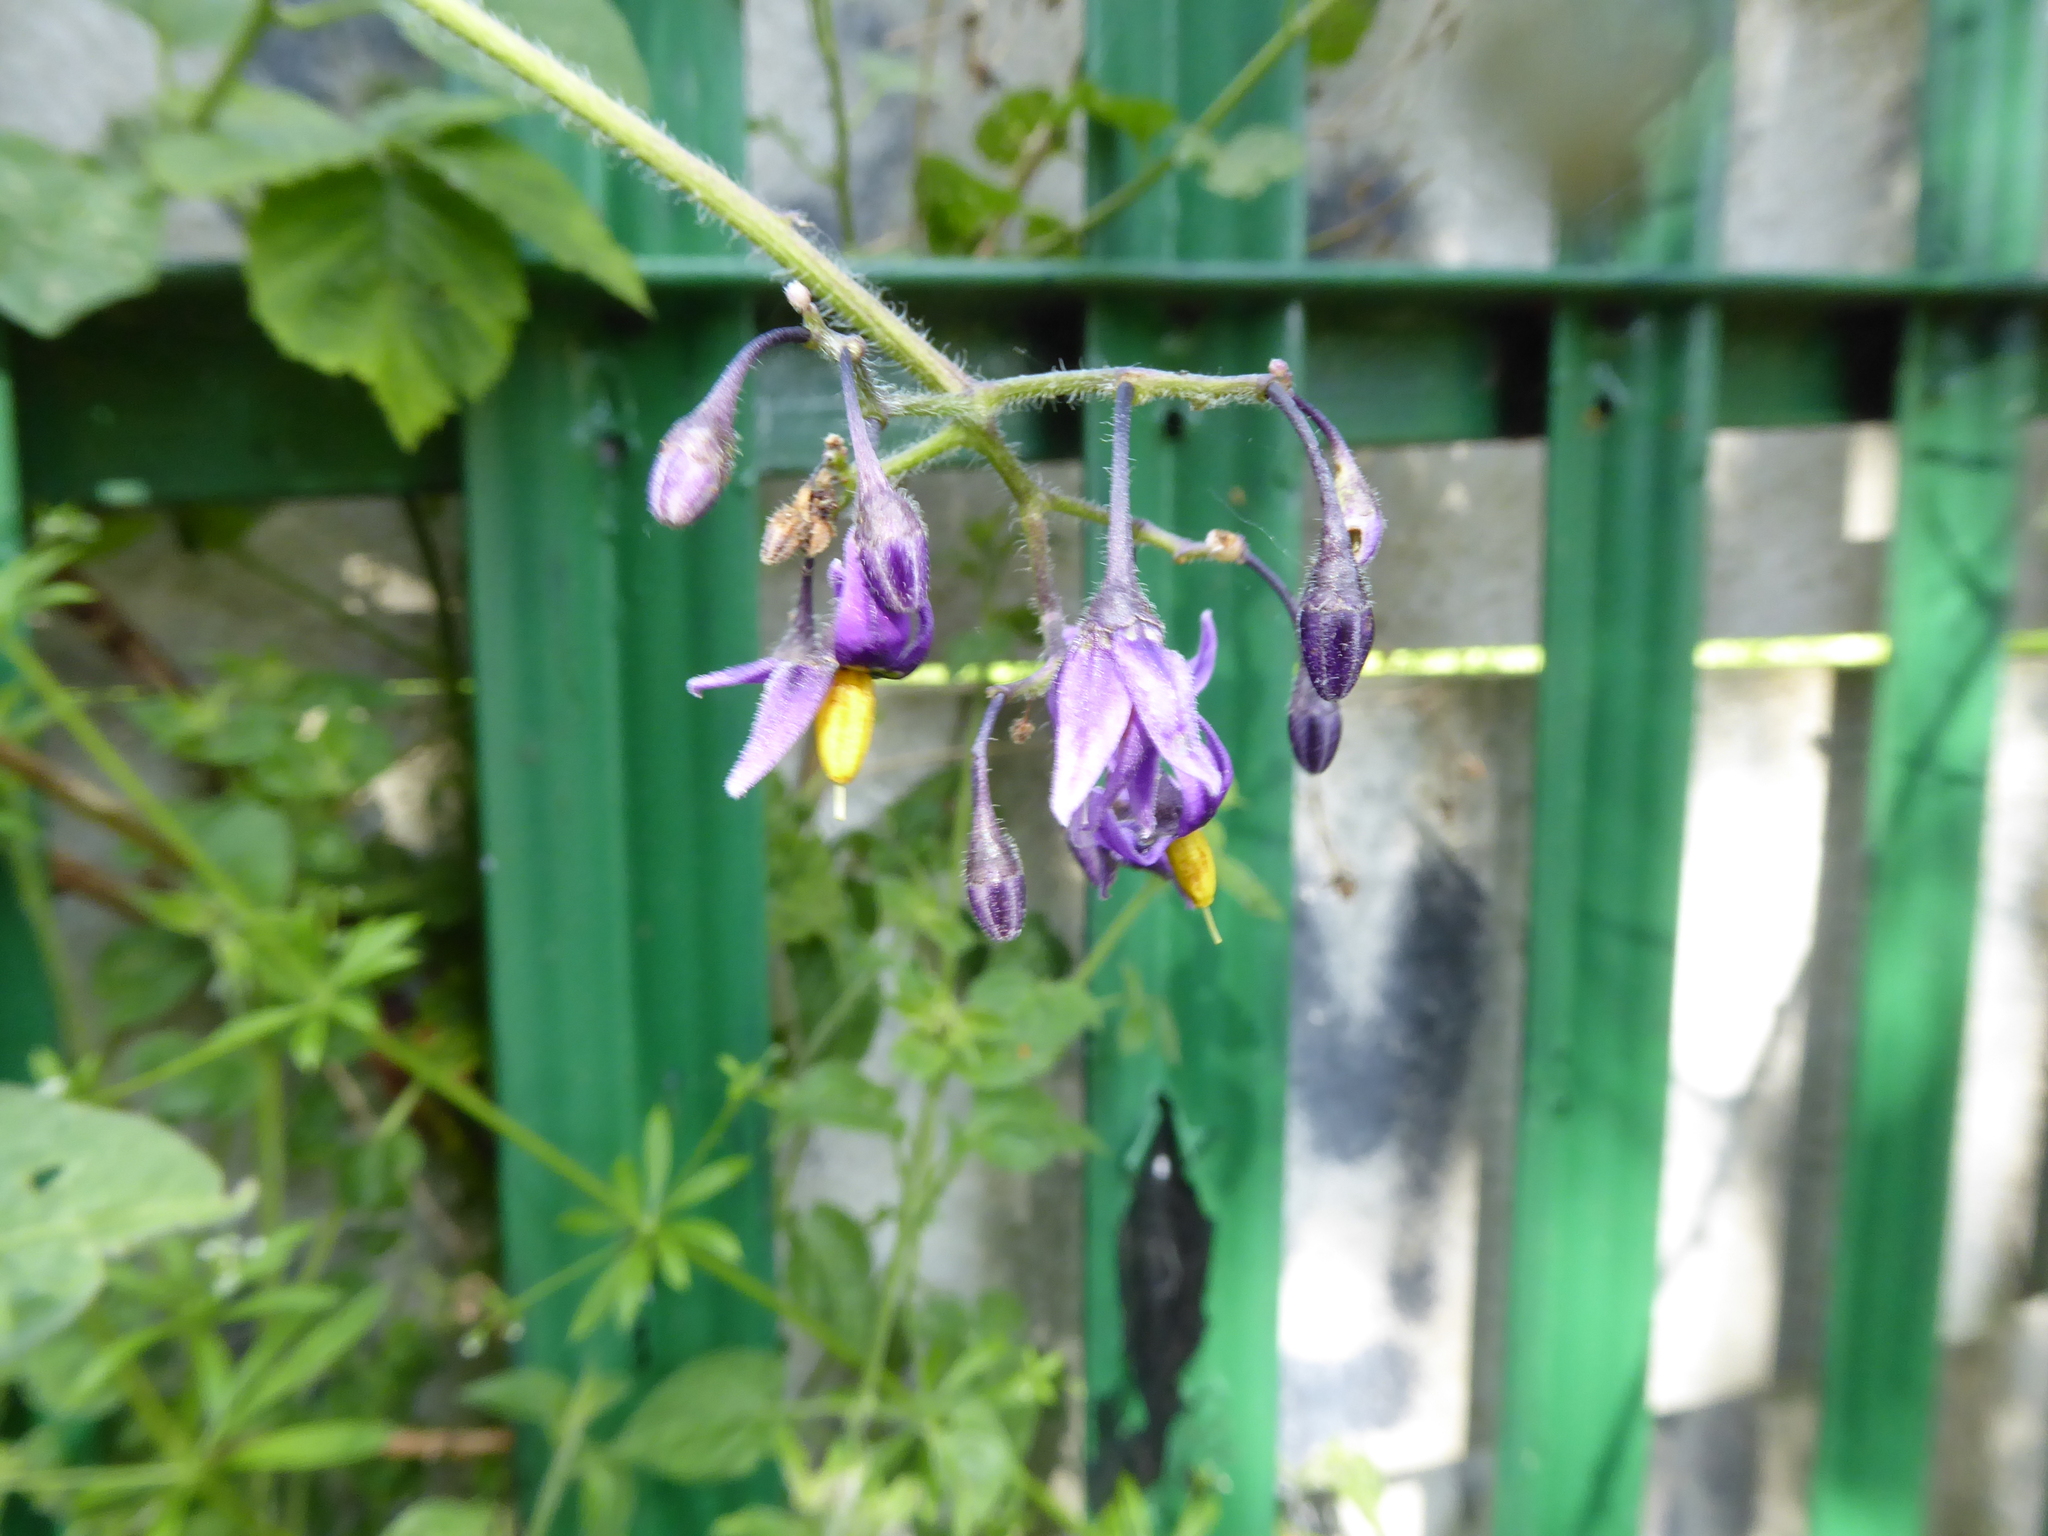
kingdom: Plantae
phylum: Tracheophyta
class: Magnoliopsida
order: Solanales
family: Solanaceae
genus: Solanum
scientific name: Solanum dulcamara
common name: Climbing nightshade
